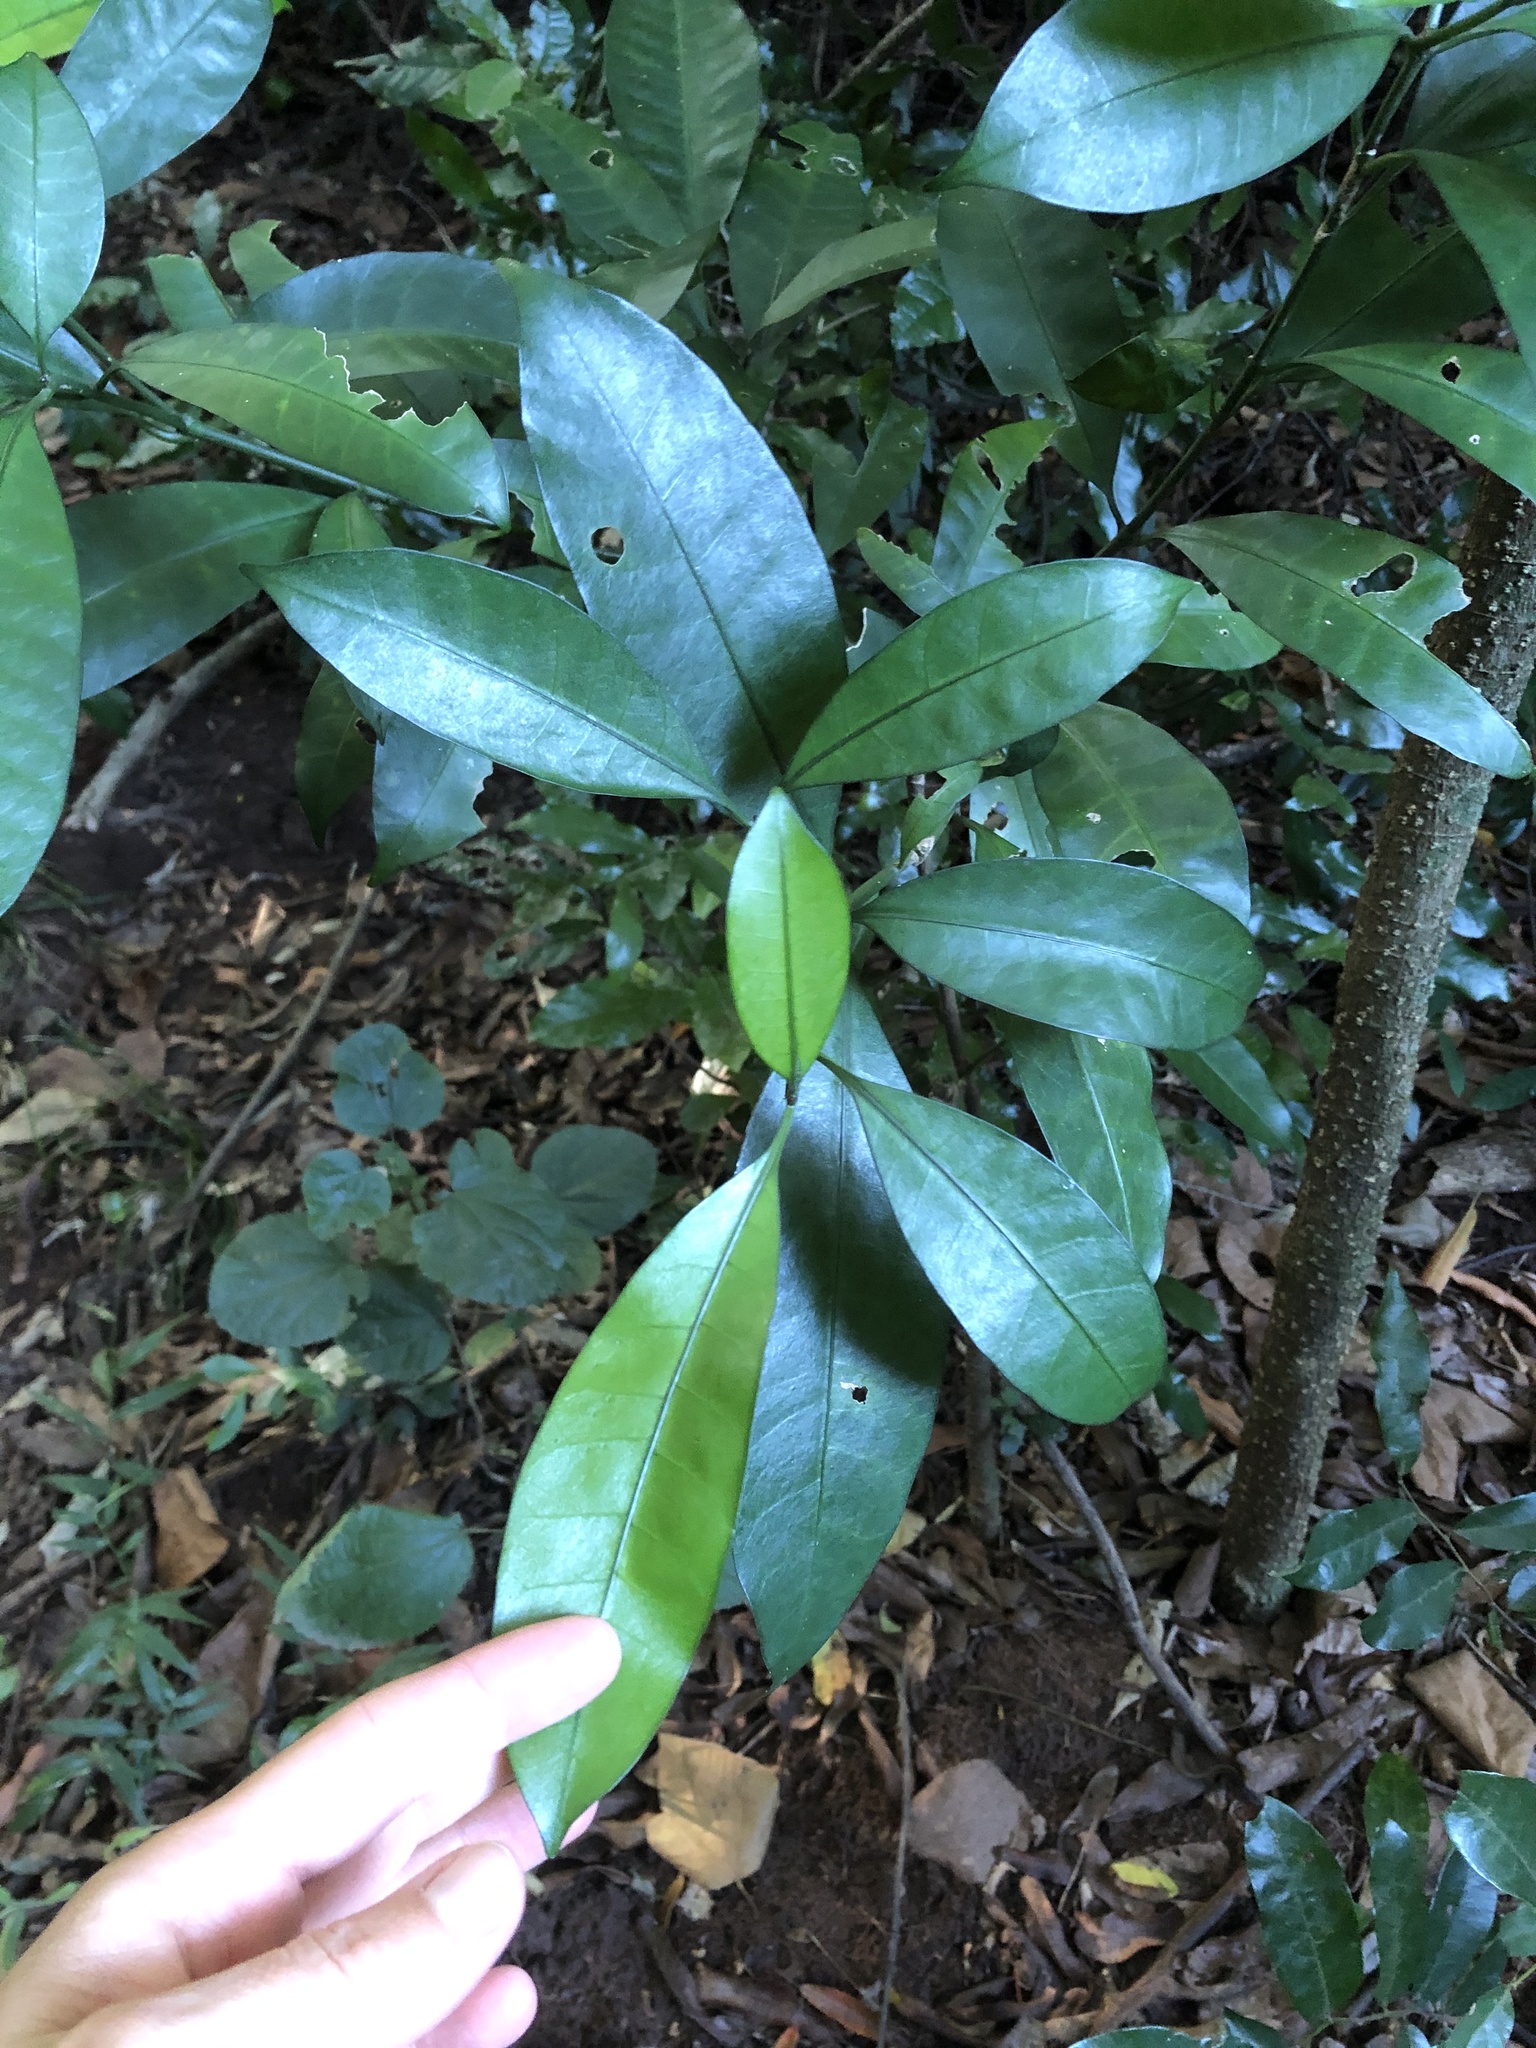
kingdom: Plantae
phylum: Tracheophyta
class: Magnoliopsida
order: Gentianales
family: Apocynaceae
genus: Tabernaemontana
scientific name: Tabernaemontana ventricosa
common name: Forest toad-tree
